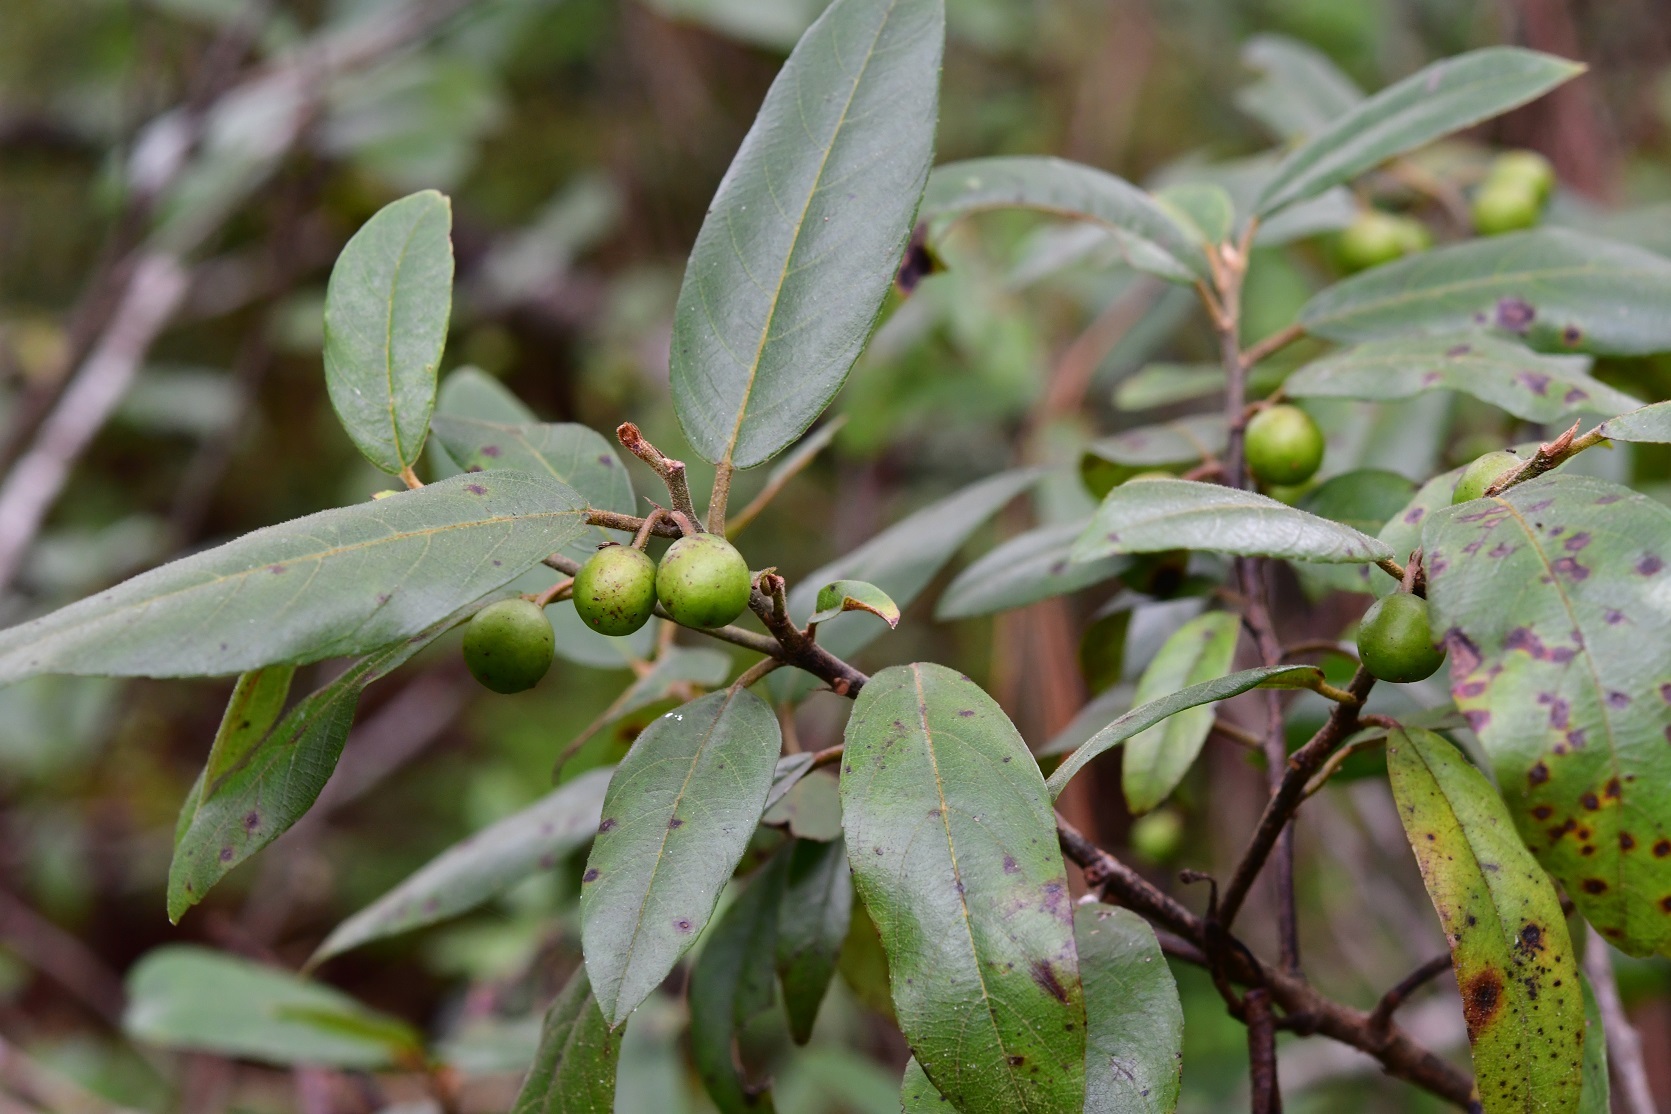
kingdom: Plantae
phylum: Tracheophyta
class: Magnoliopsida
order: Rosales
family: Rhamnaceae
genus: Frangula
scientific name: Frangula mucronata
